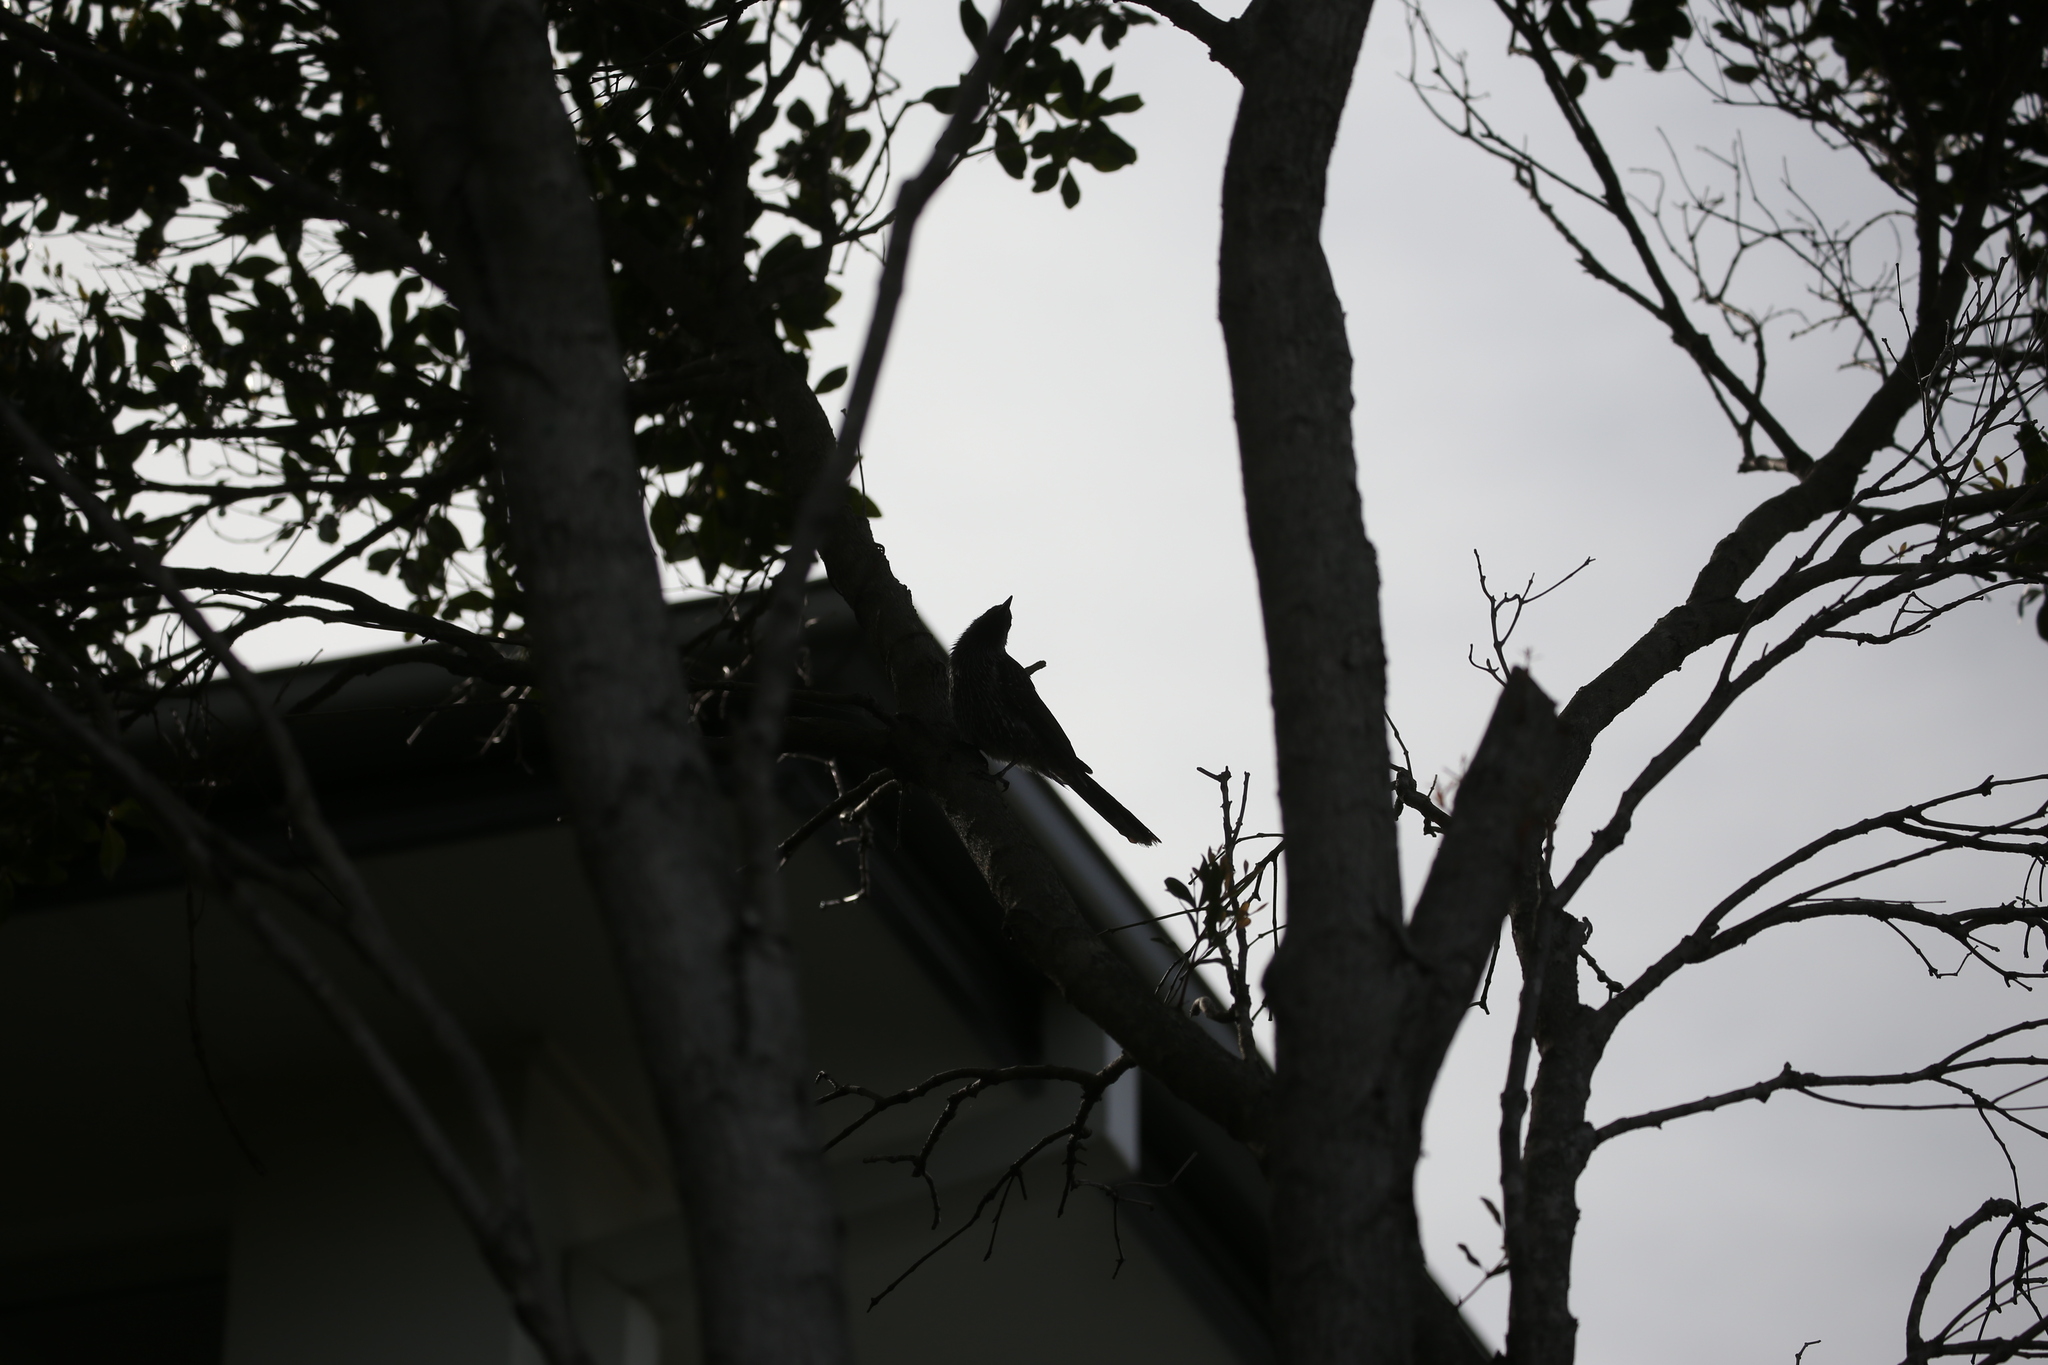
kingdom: Animalia
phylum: Chordata
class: Aves
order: Passeriformes
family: Meliphagidae
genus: Anthochaera
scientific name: Anthochaera chrysoptera
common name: Little wattlebird
